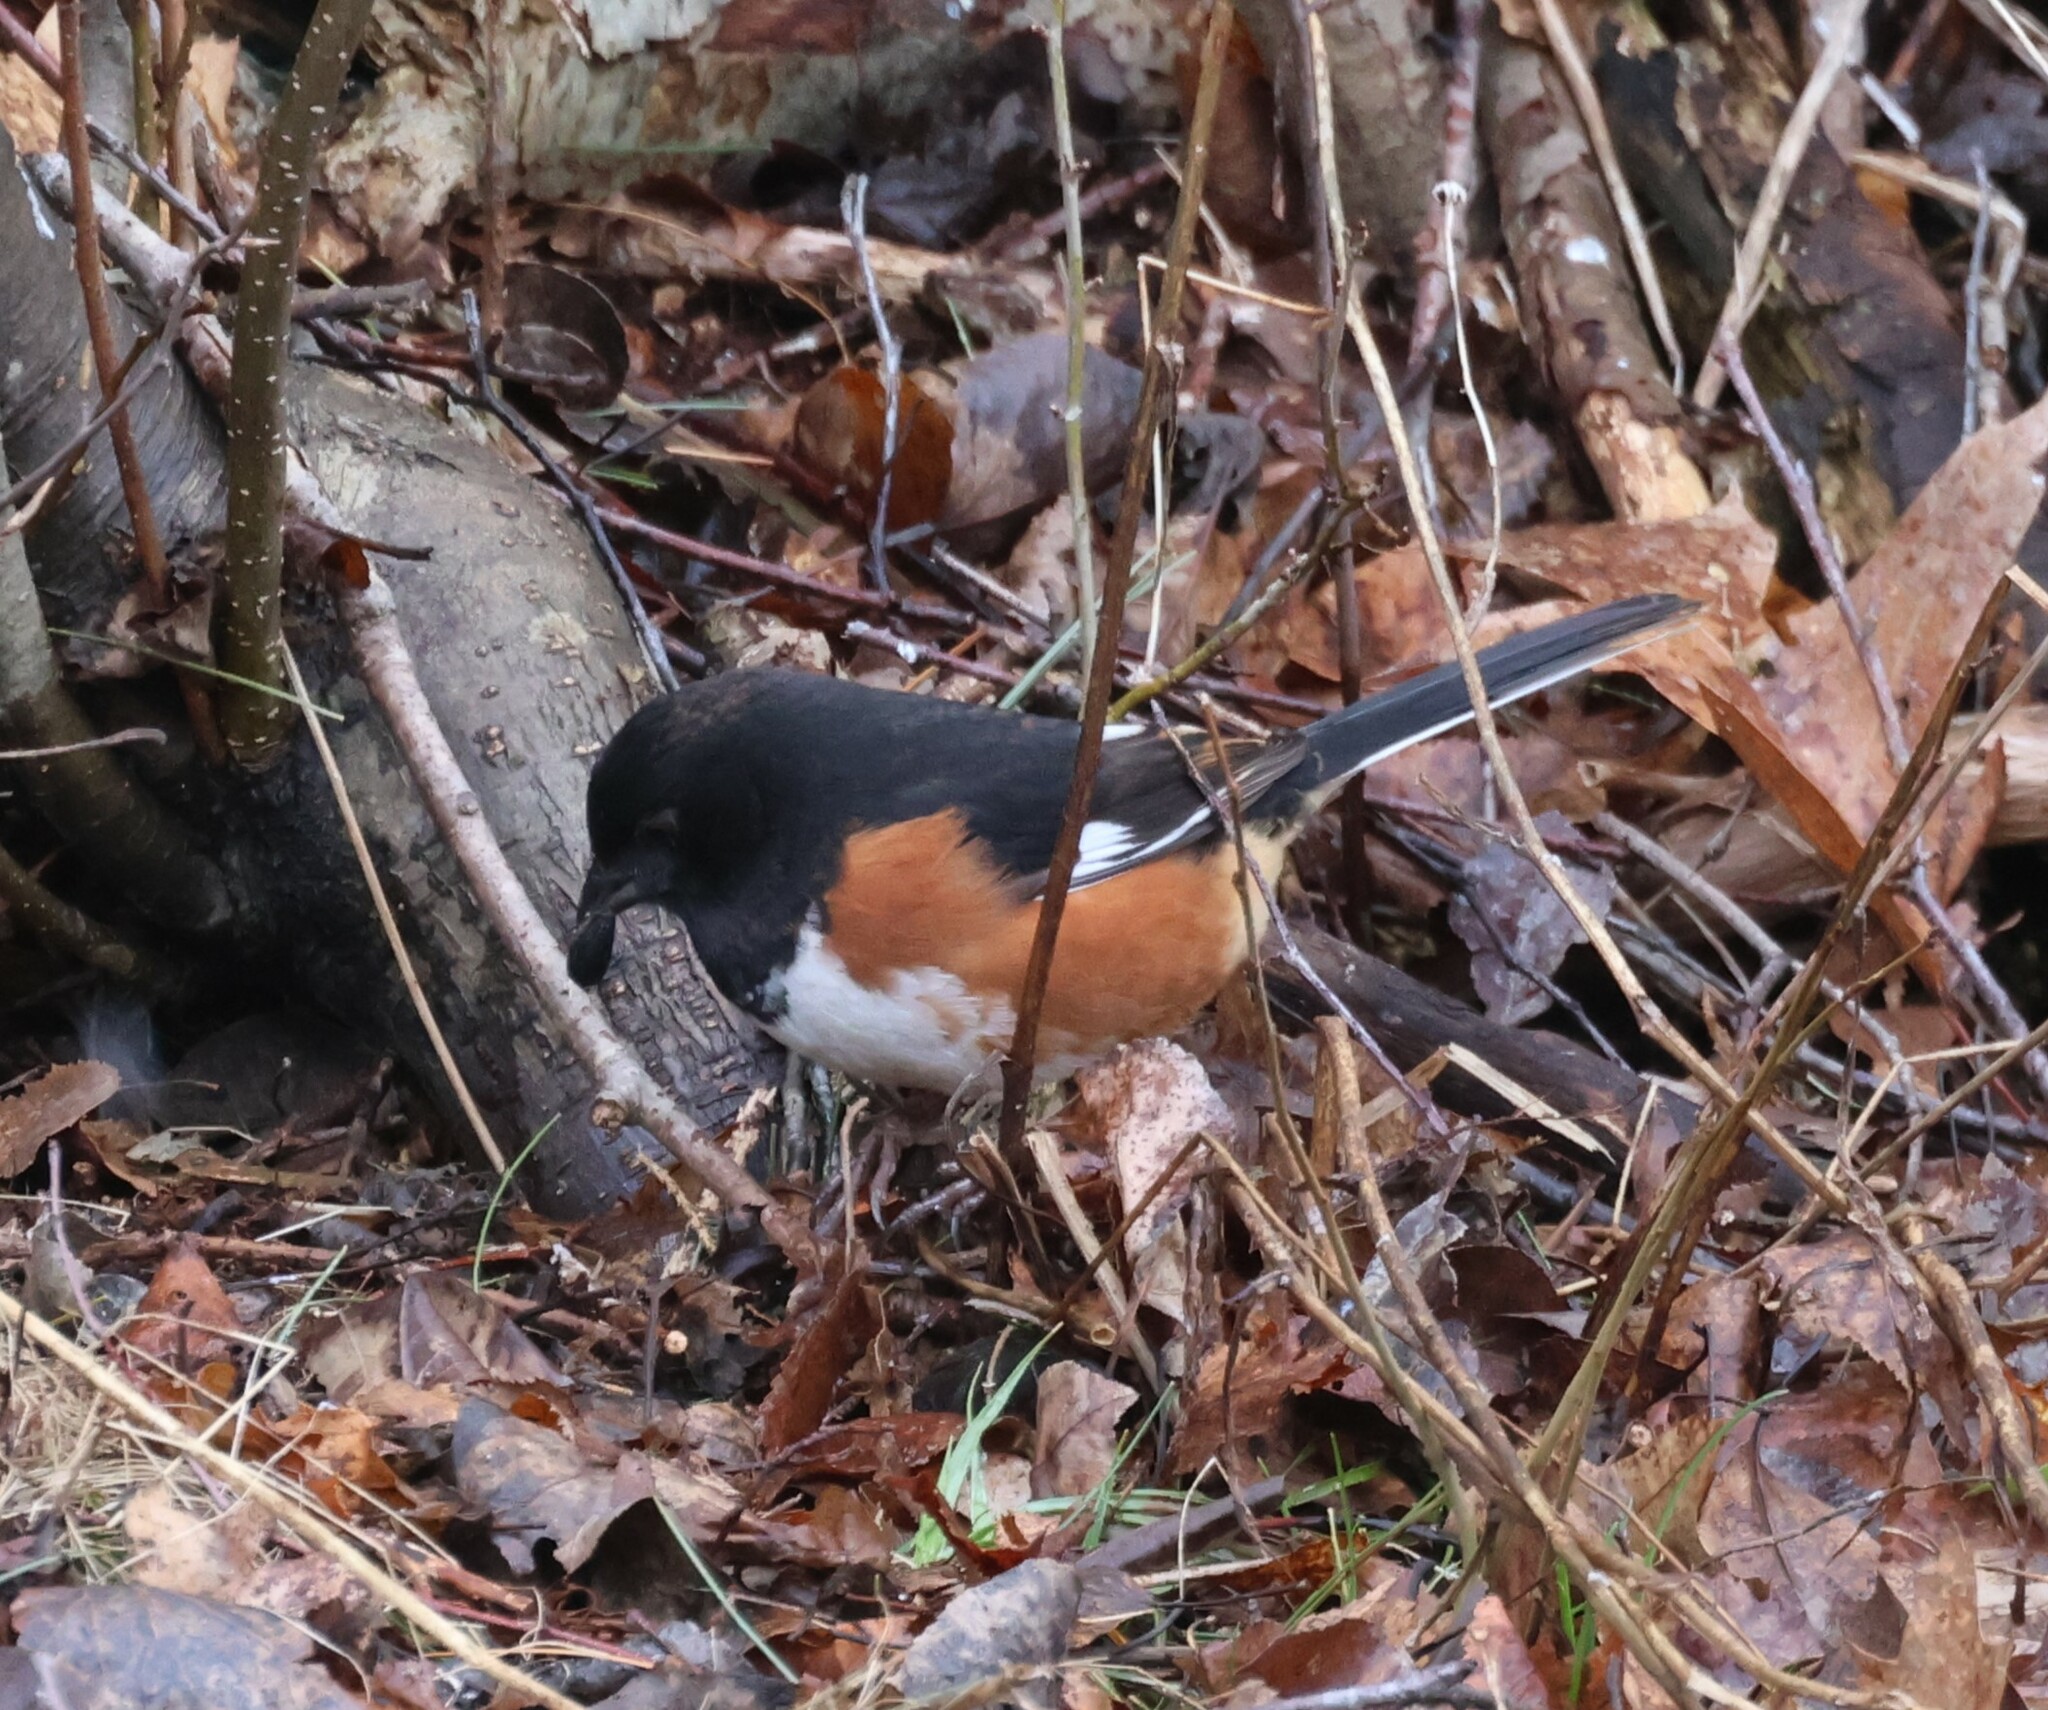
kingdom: Animalia
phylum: Chordata
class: Aves
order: Passeriformes
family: Passerellidae
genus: Pipilo
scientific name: Pipilo erythrophthalmus
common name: Eastern towhee
